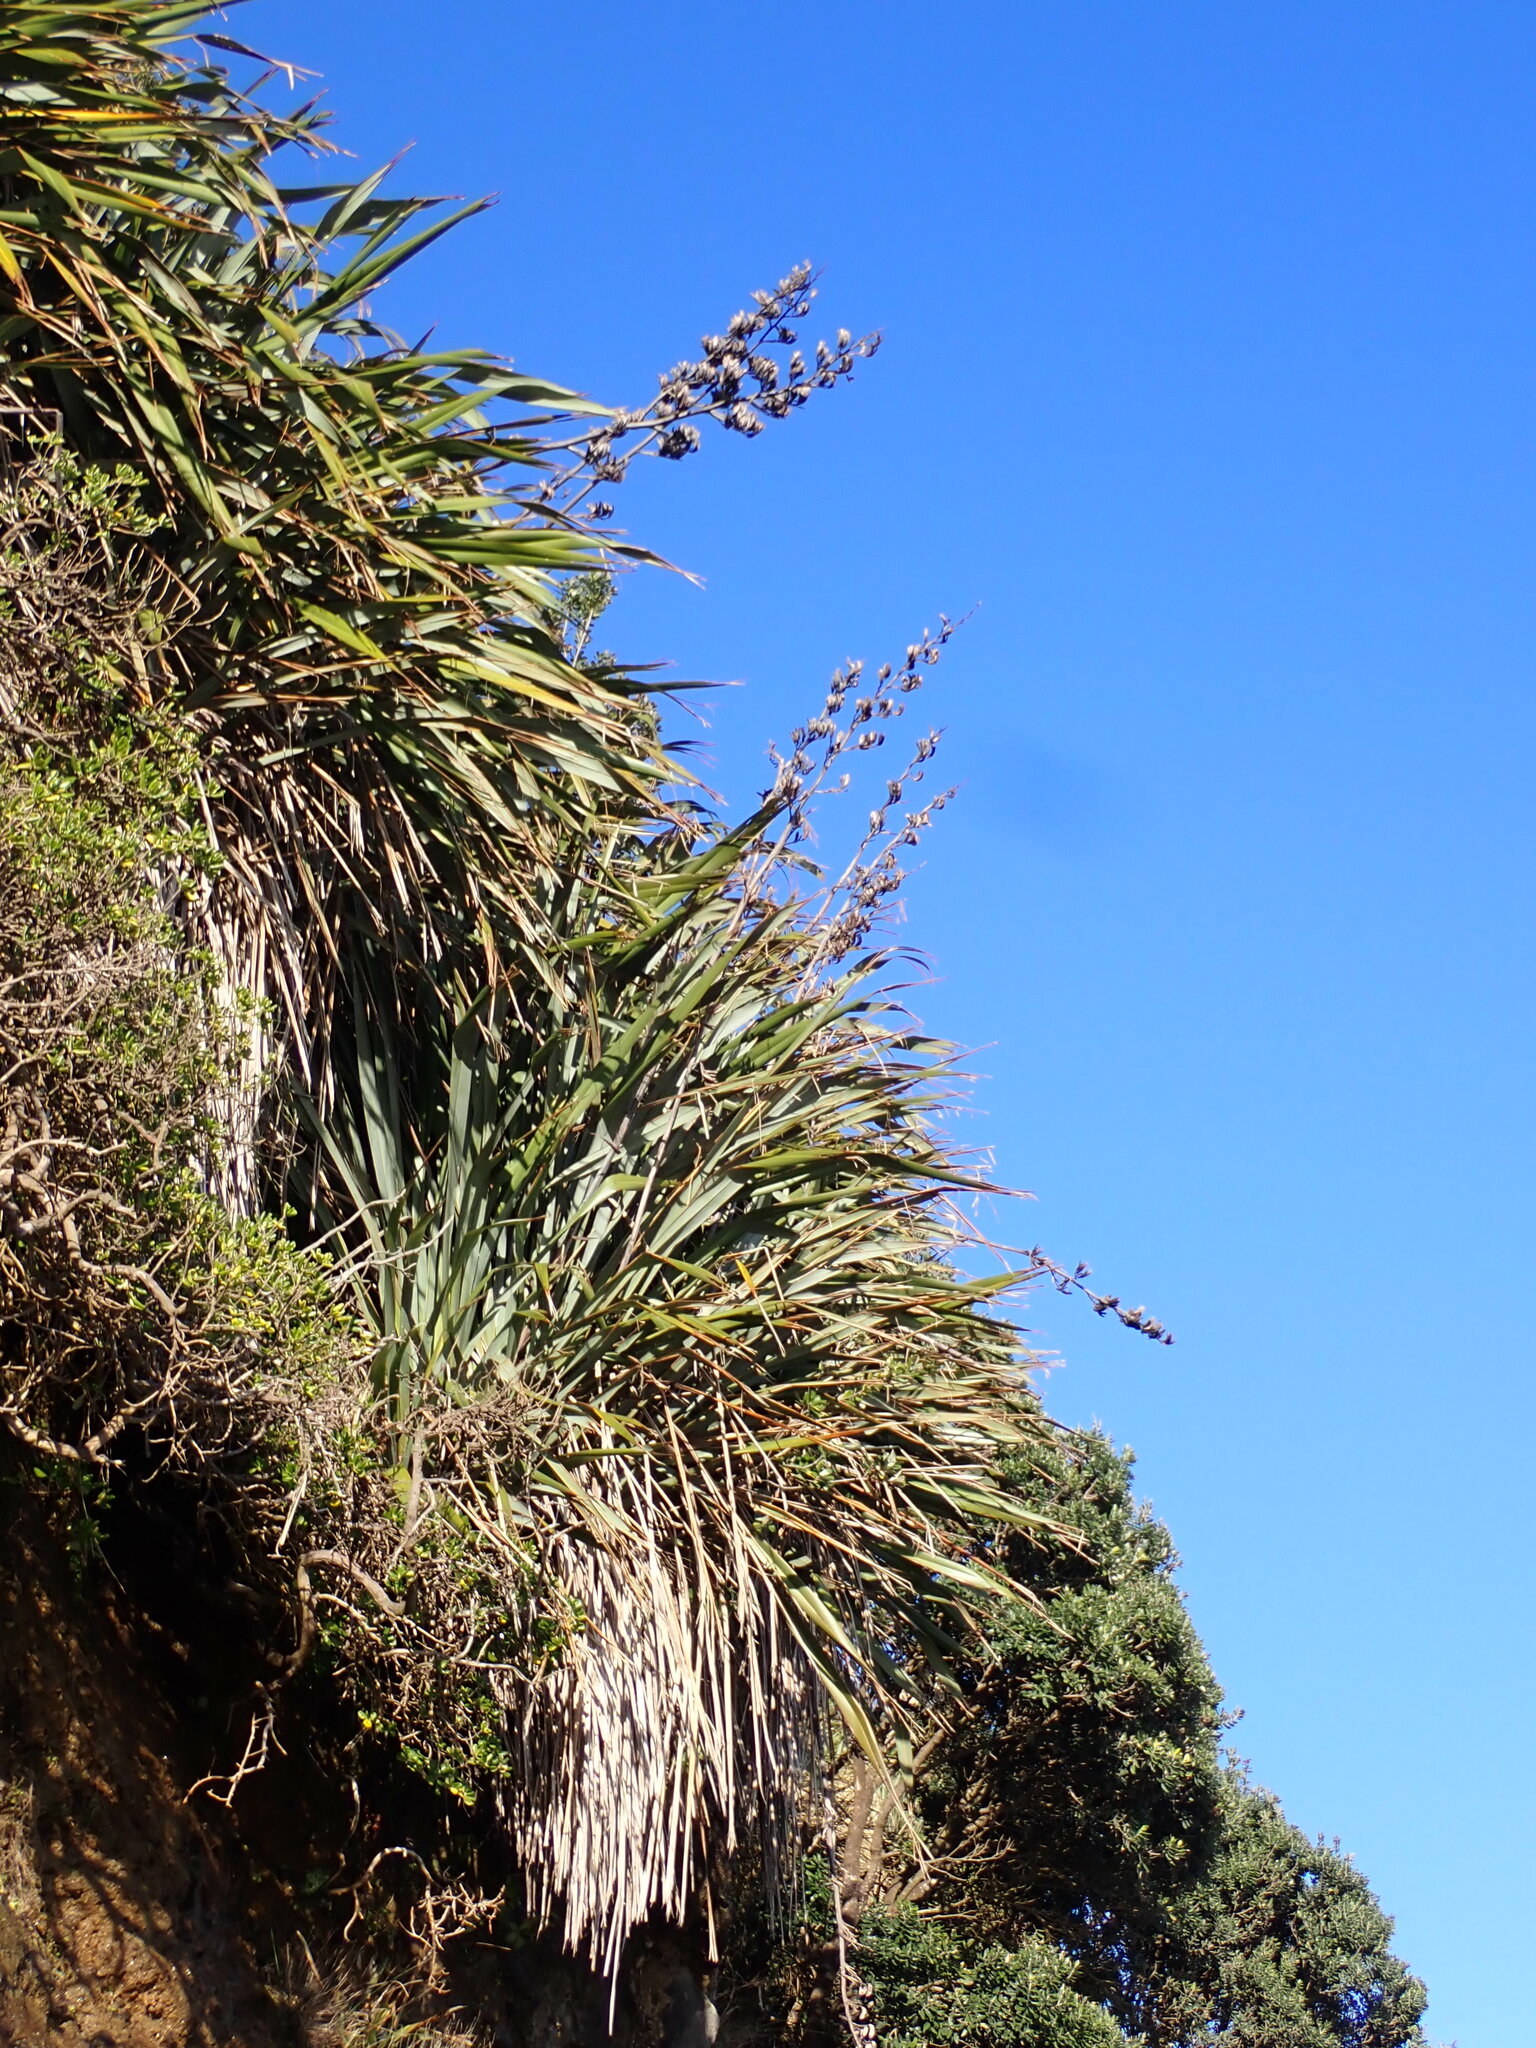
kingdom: Plantae
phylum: Tracheophyta
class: Liliopsida
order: Asparagales
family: Asphodelaceae
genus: Phormium
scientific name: Phormium tenax
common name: New zealand flax
